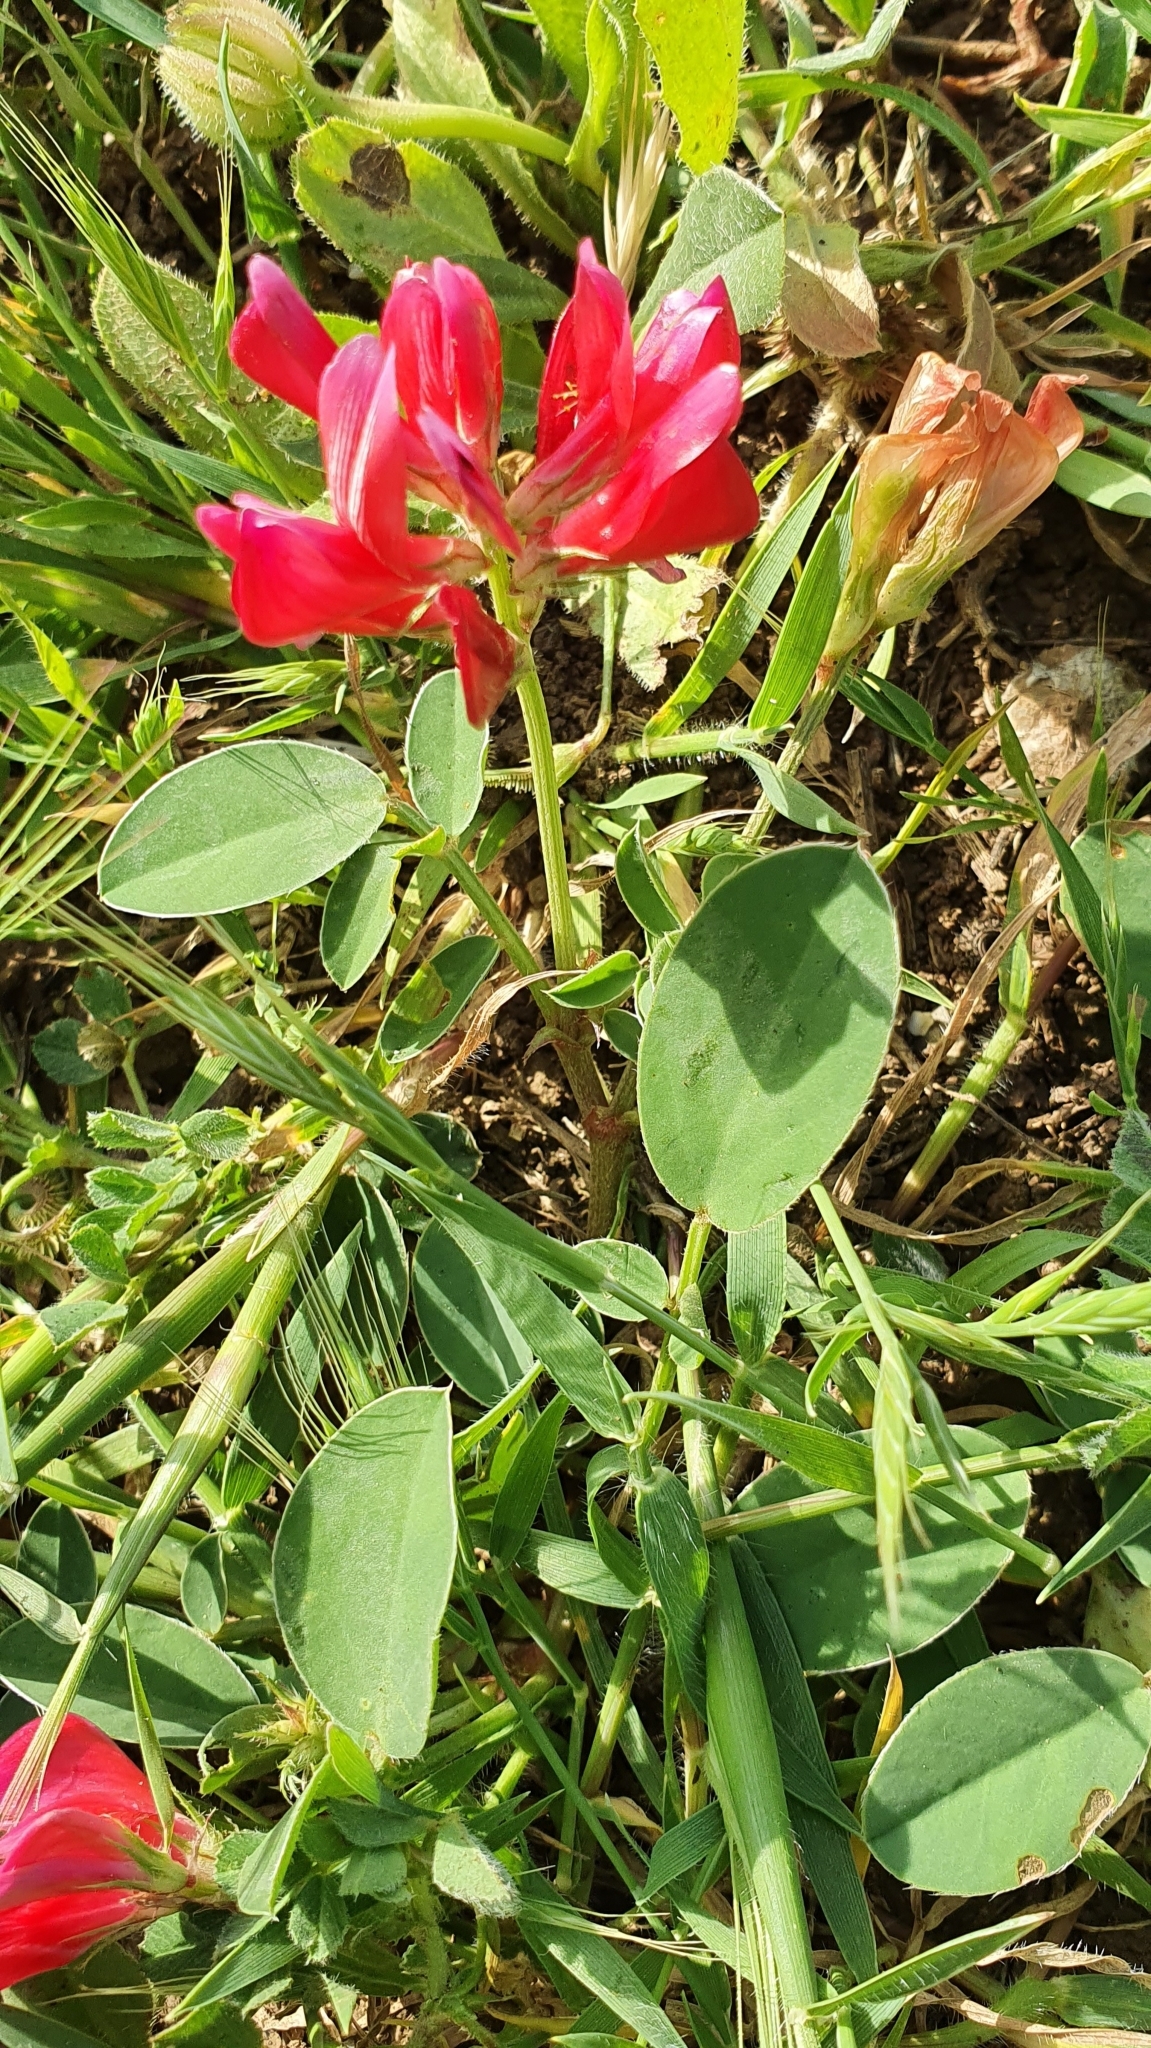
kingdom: Plantae
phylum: Tracheophyta
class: Magnoliopsida
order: Fabales
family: Fabaceae
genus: Sulla
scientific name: Sulla coronaria
